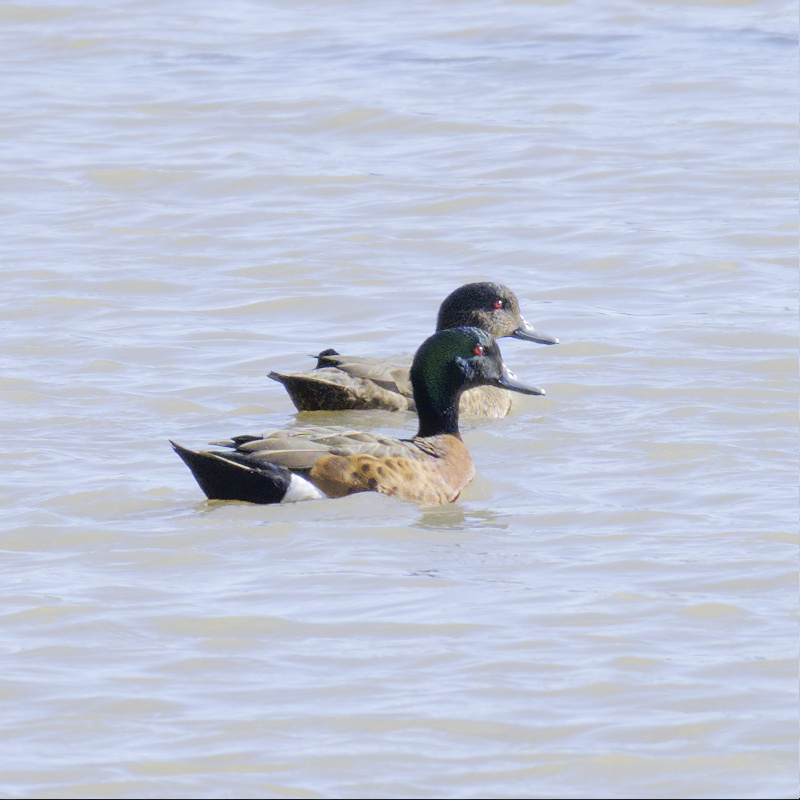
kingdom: Animalia
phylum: Chordata
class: Aves
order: Anseriformes
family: Anatidae
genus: Anas
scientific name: Anas castanea
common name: Chestnut teal
